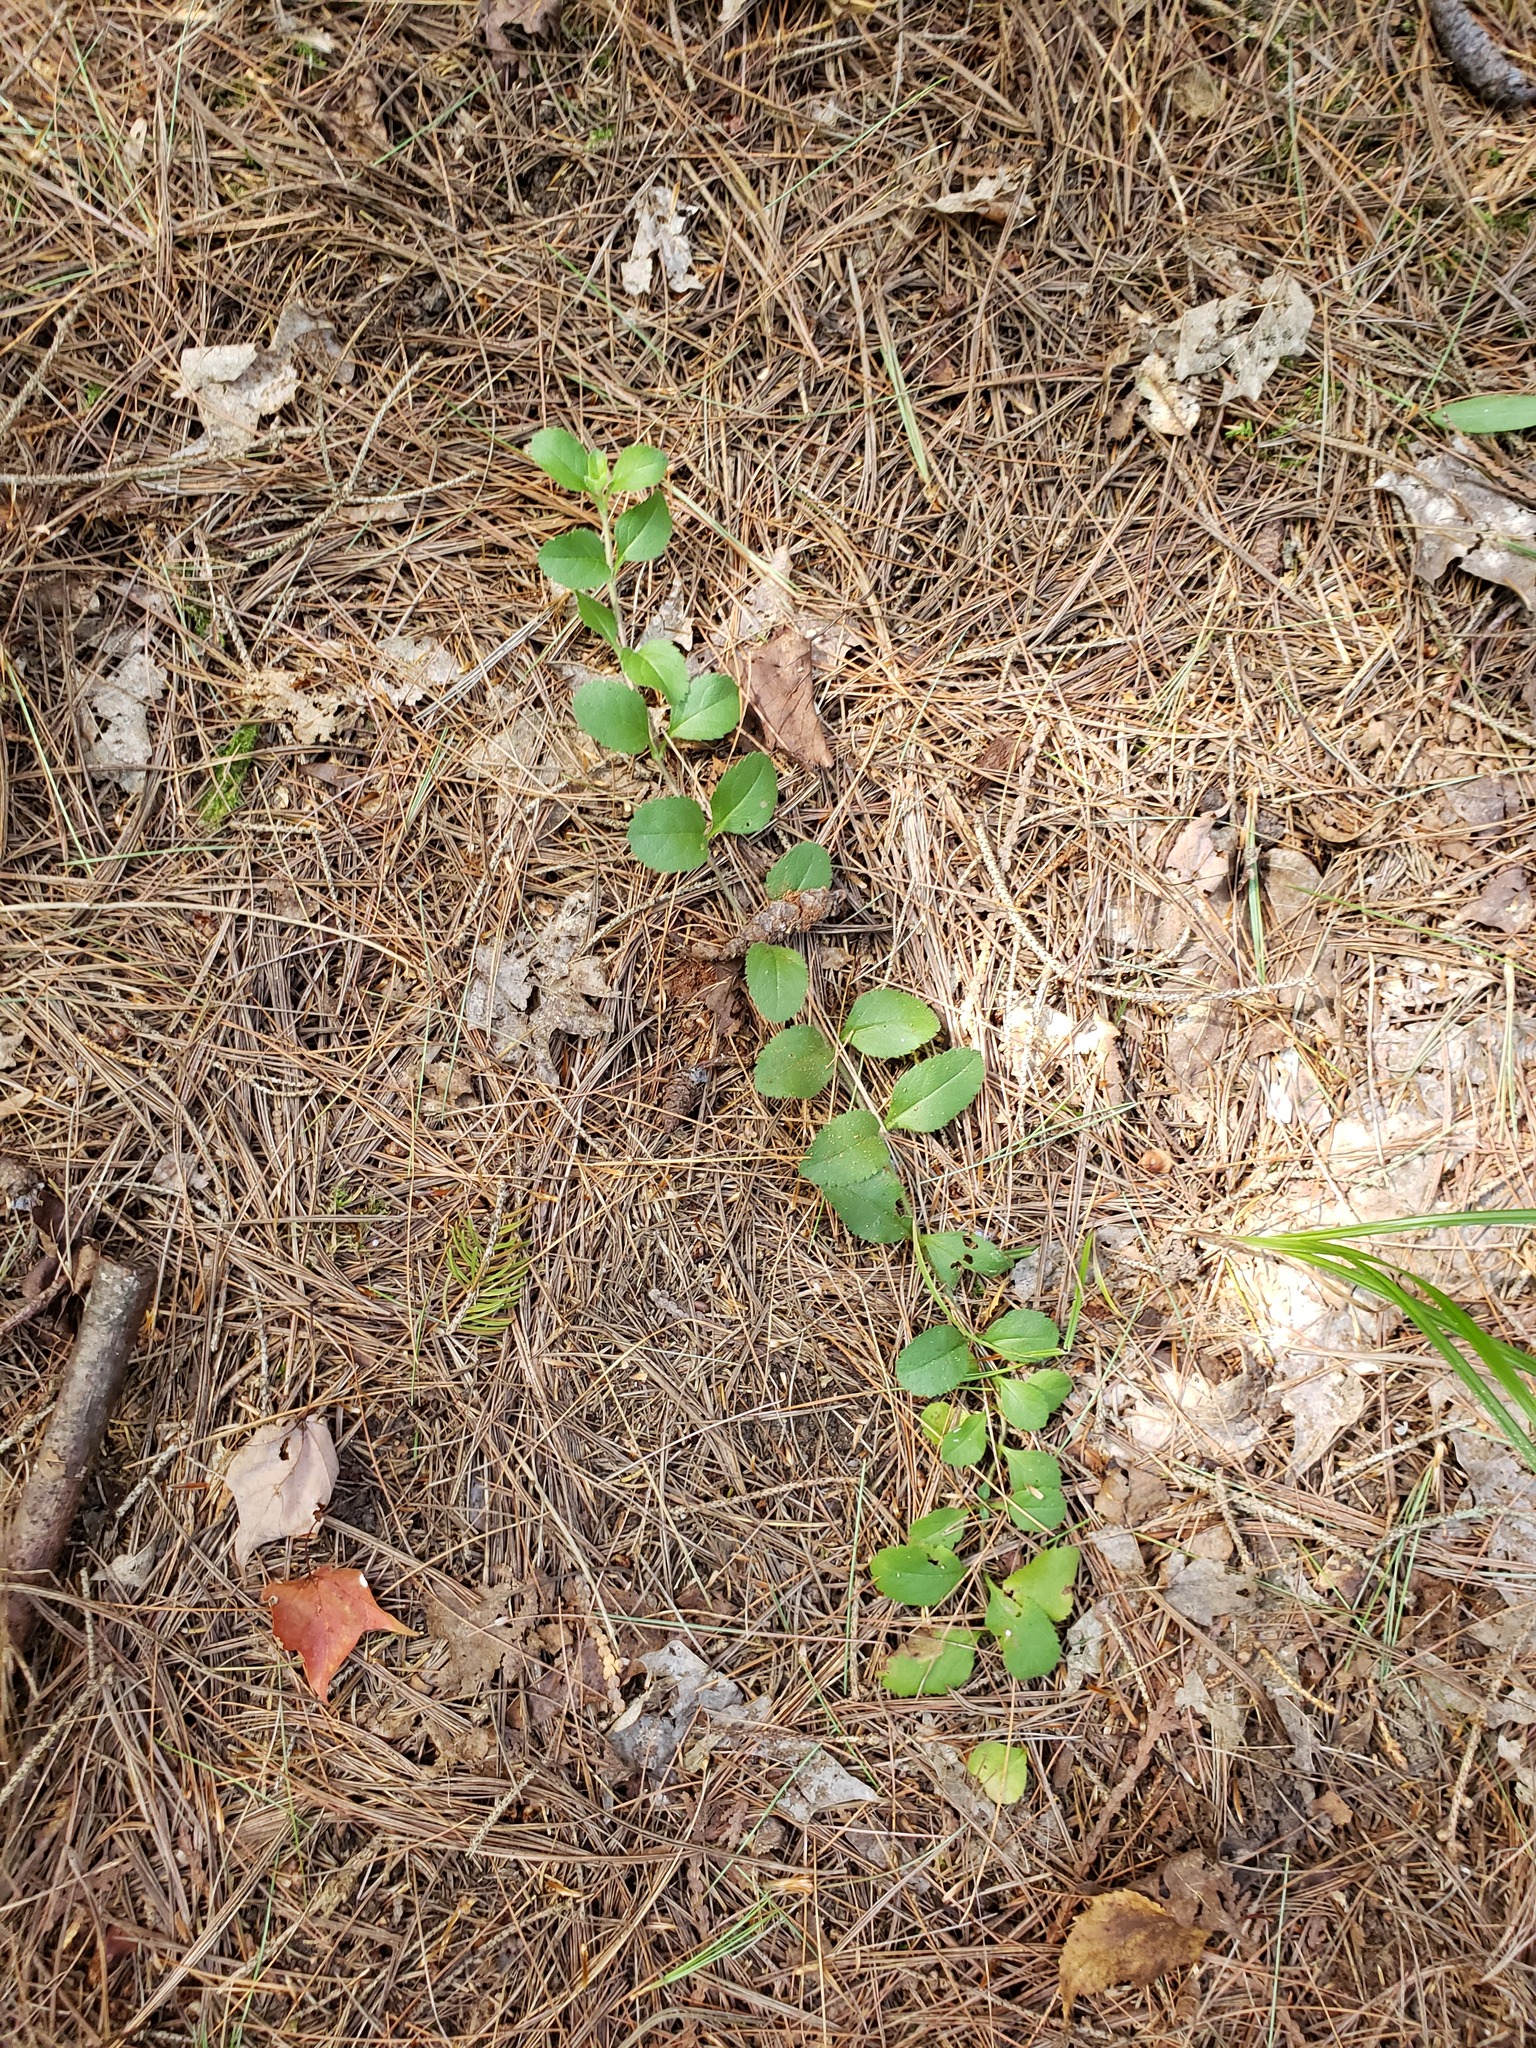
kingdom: Plantae
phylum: Tracheophyta
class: Magnoliopsida
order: Lamiales
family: Plantaginaceae
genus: Veronica
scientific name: Veronica officinalis
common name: Common speedwell
